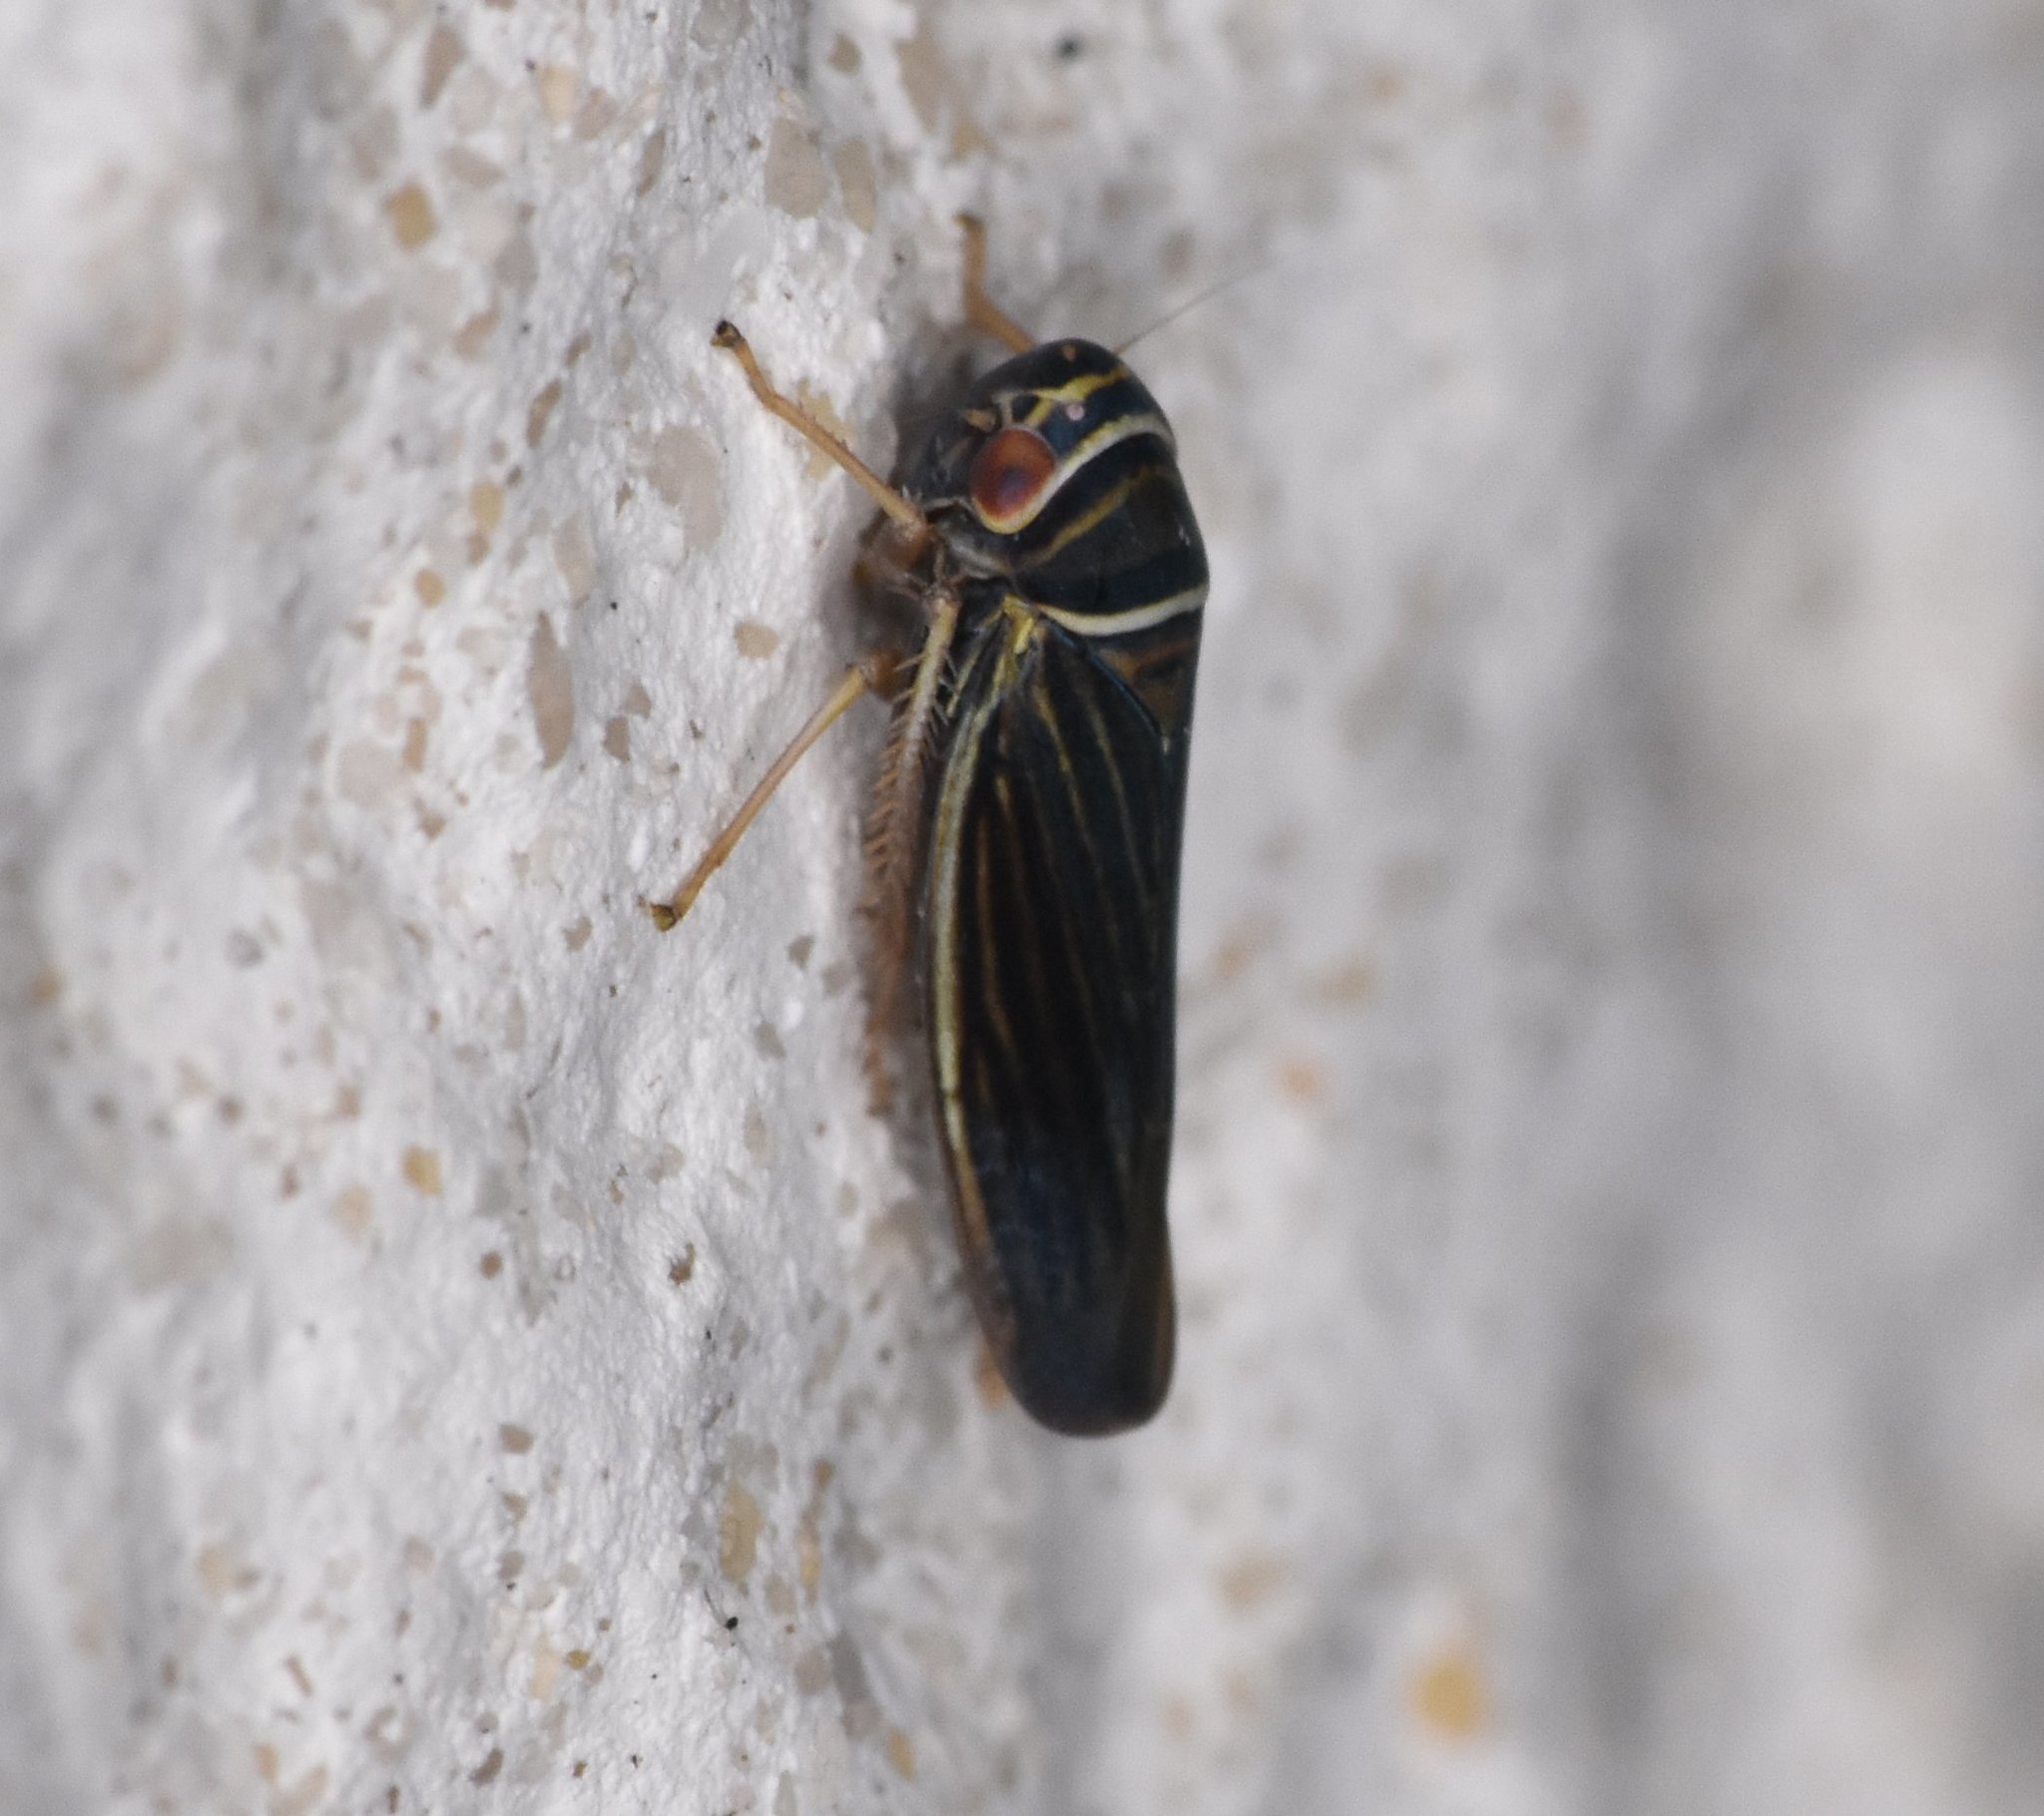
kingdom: Animalia
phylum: Arthropoda
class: Insecta
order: Hemiptera
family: Cicadellidae
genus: Tylozygus
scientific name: Tylozygus bifidus
